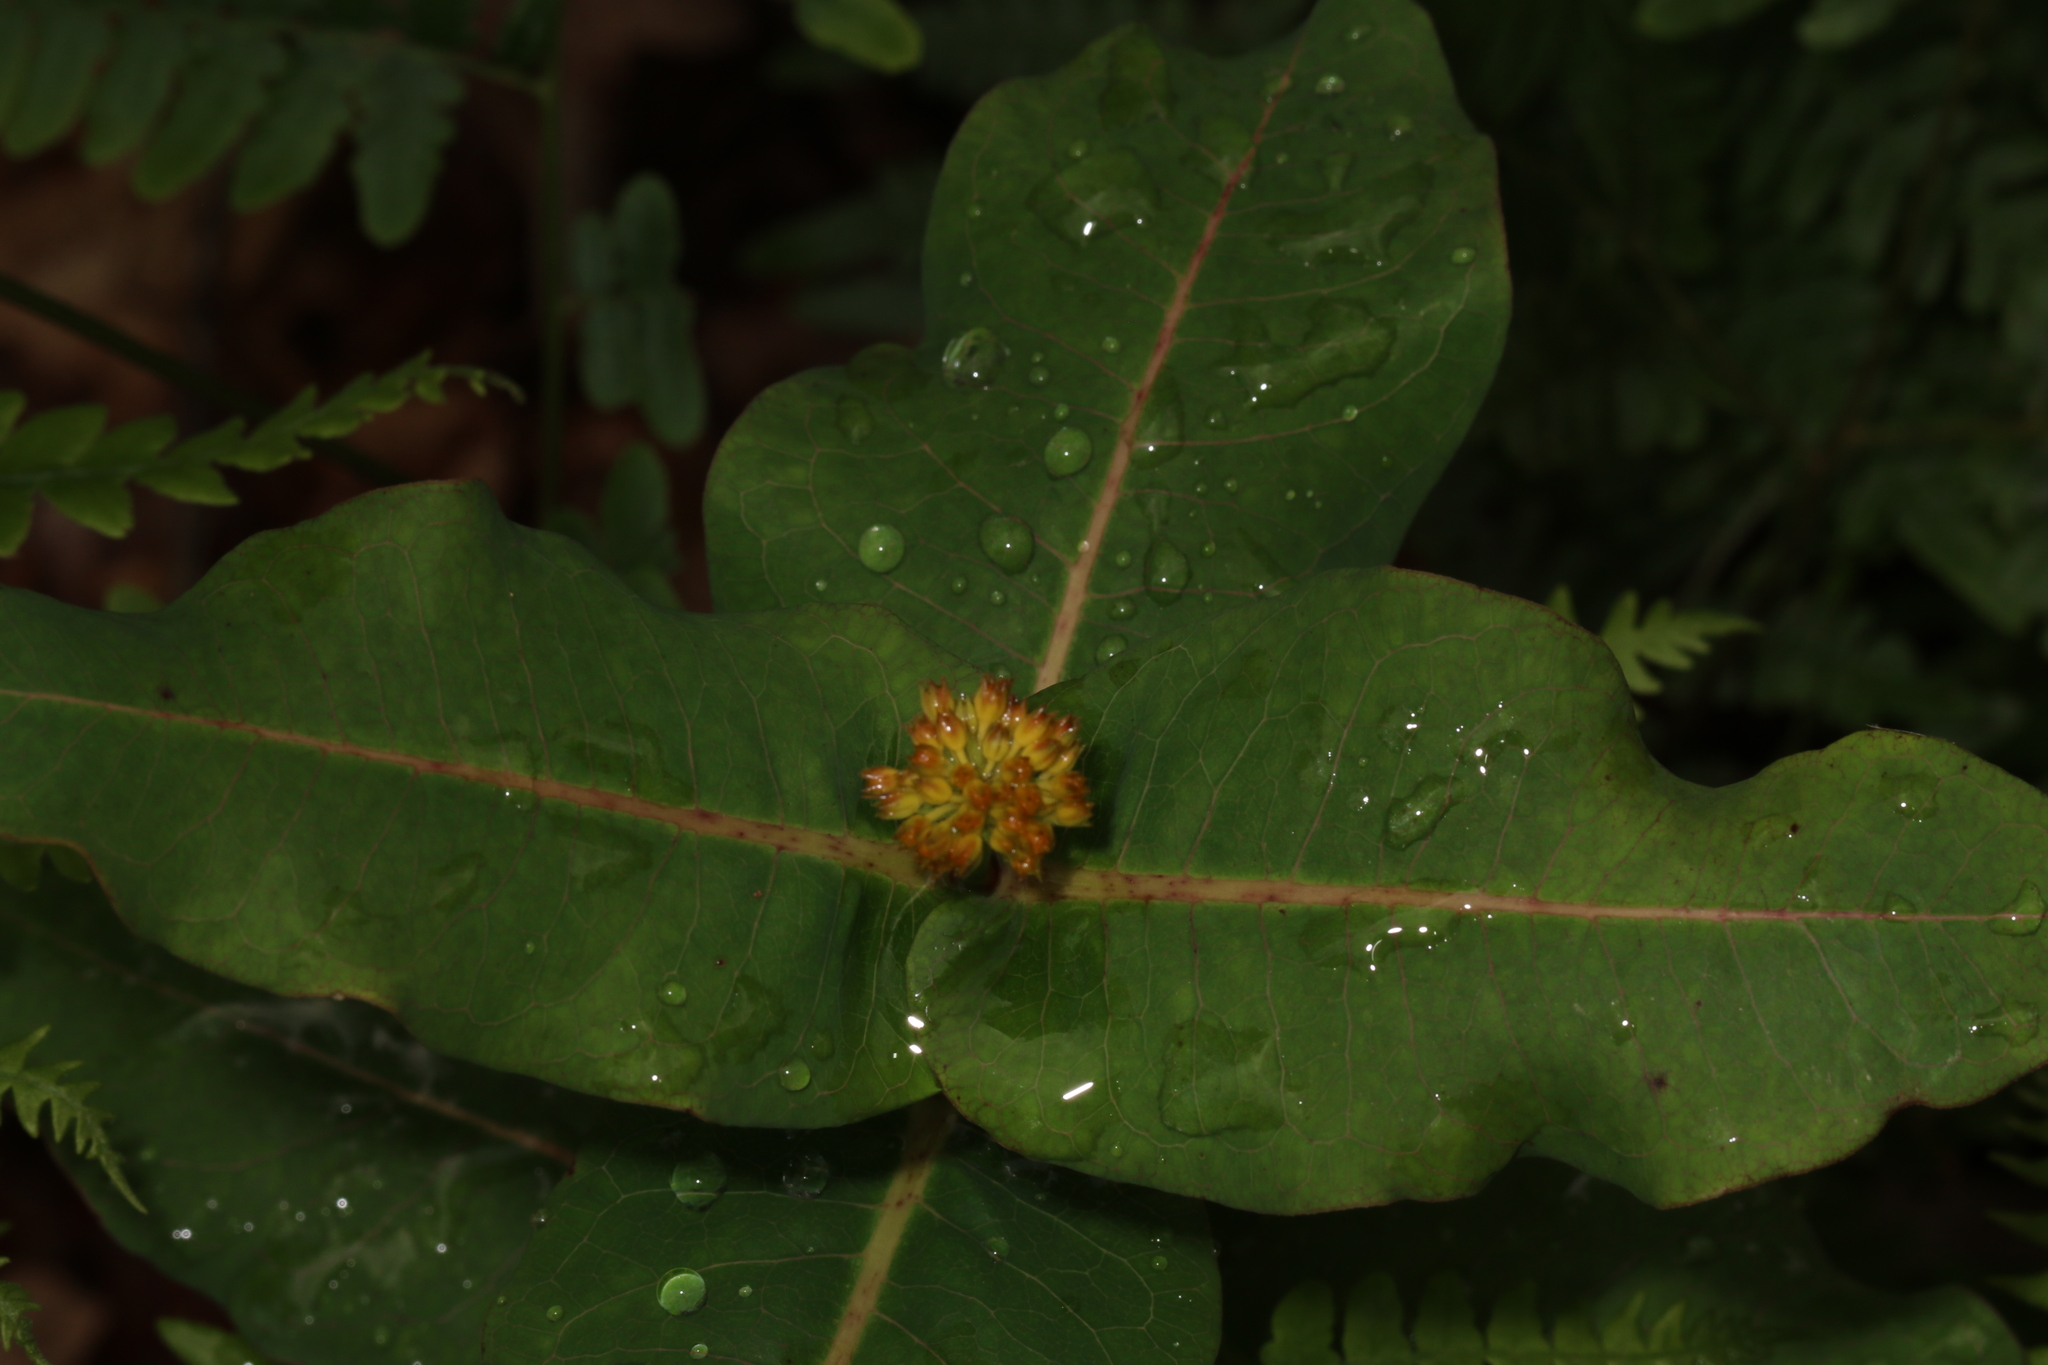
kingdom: Plantae
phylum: Tracheophyta
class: Magnoliopsida
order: Gentianales
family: Apocynaceae
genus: Asclepias
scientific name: Asclepias amplexicaulis
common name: Blunt-leaf milkweed
